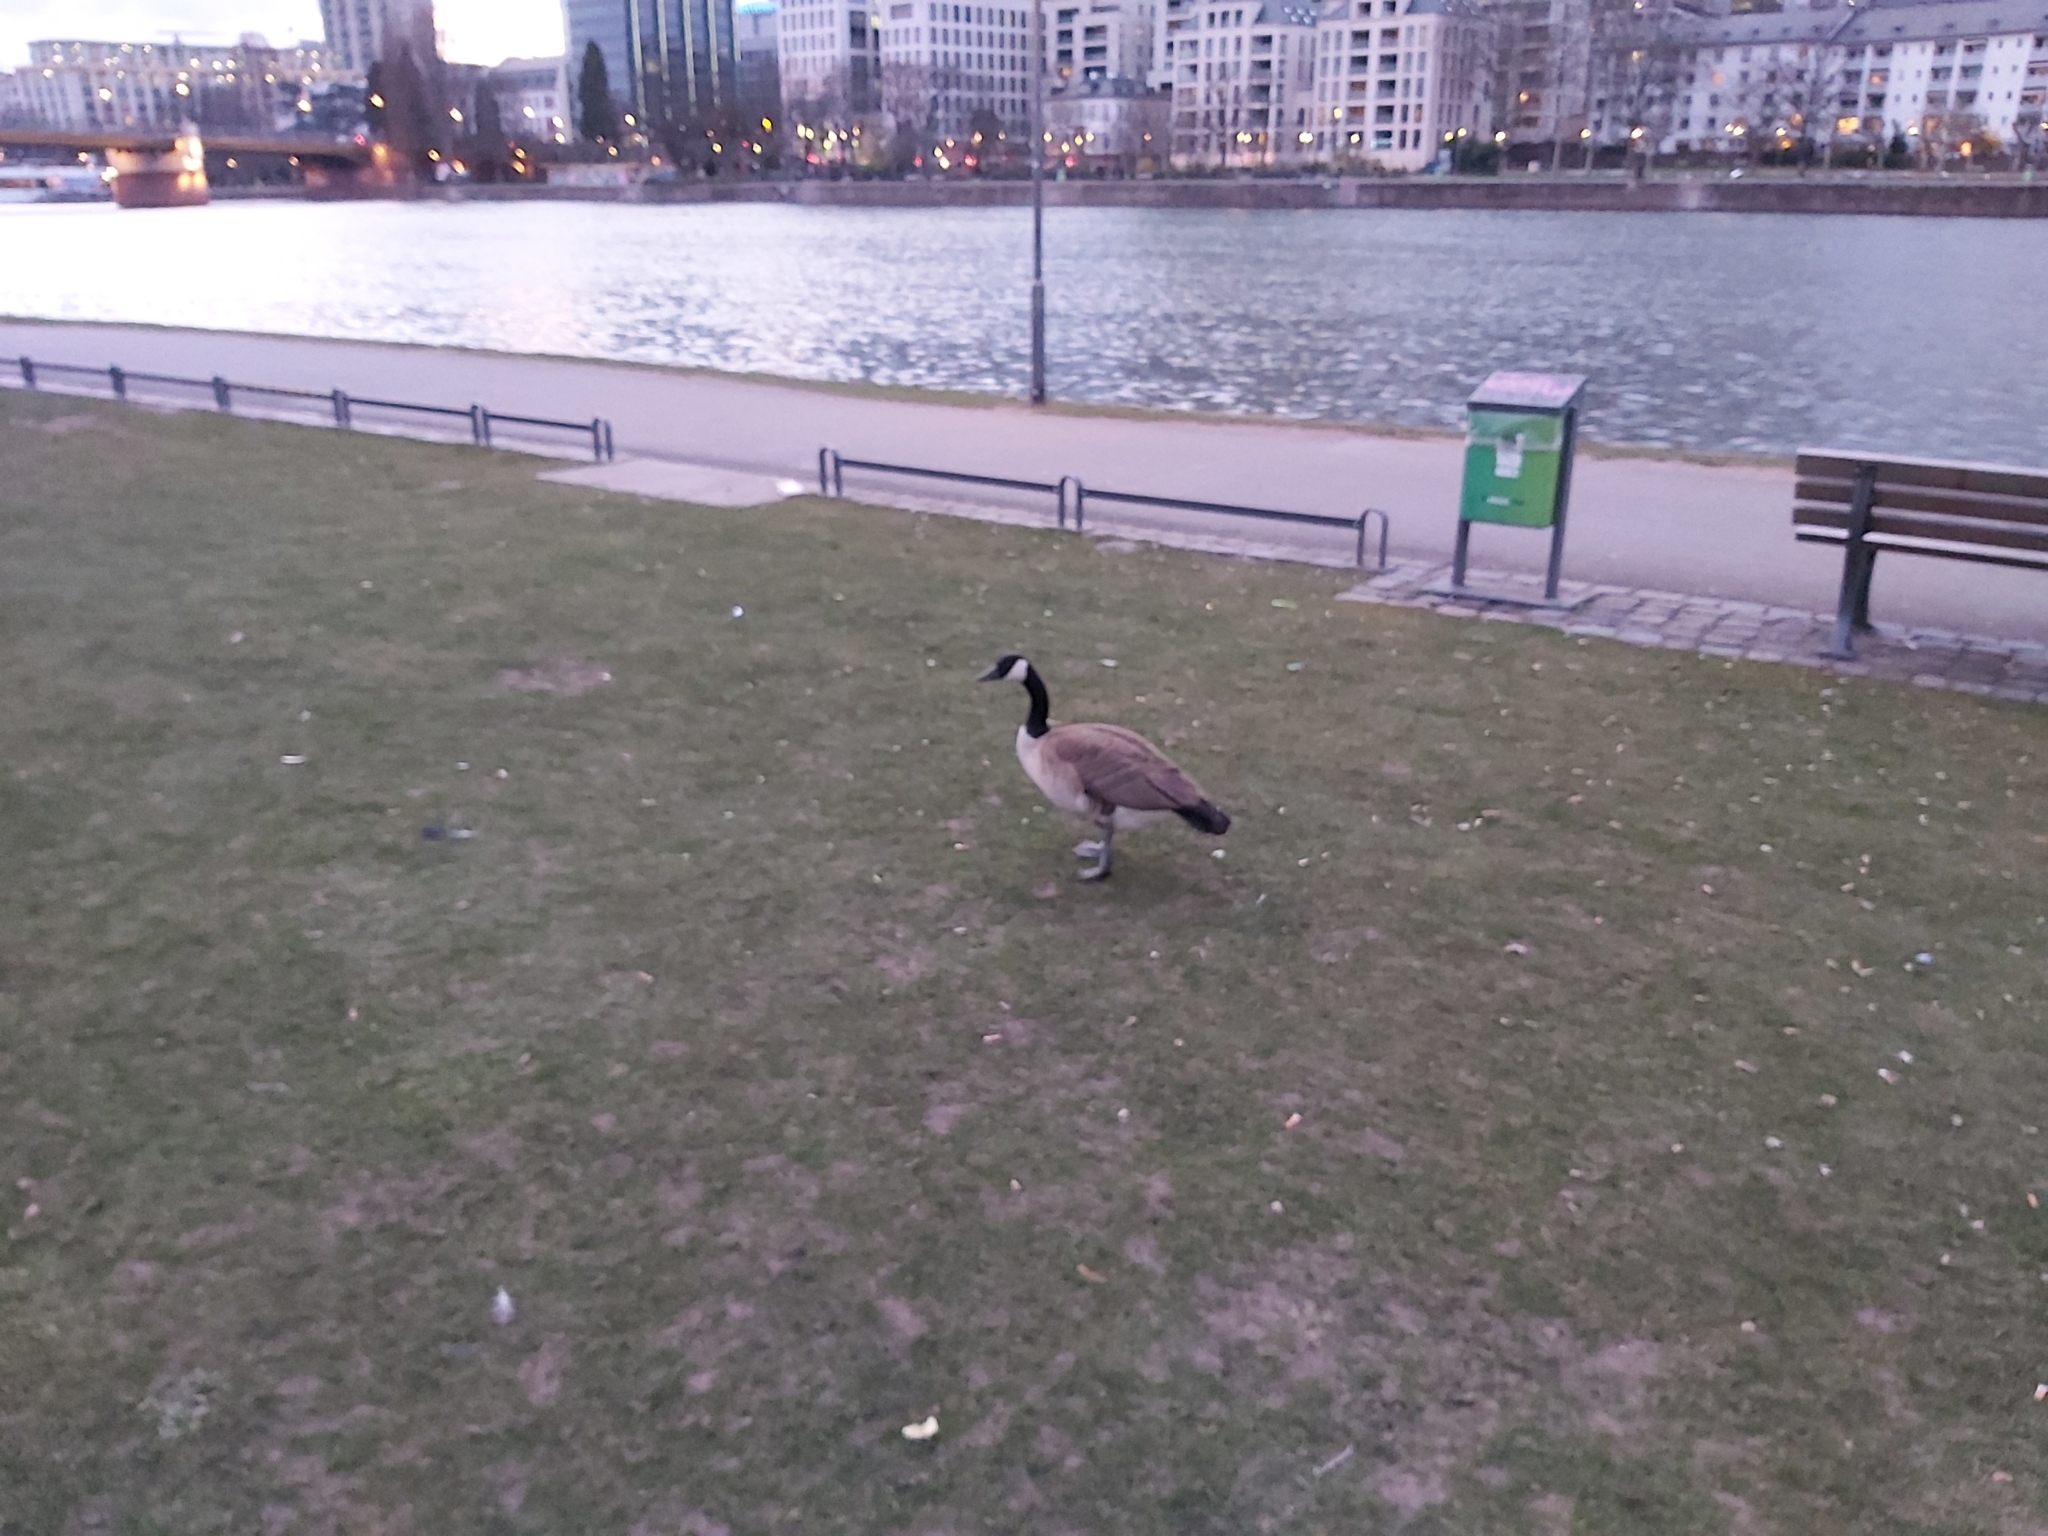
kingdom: Animalia
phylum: Chordata
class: Aves
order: Anseriformes
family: Anatidae
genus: Branta
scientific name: Branta canadensis
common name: Canada goose
